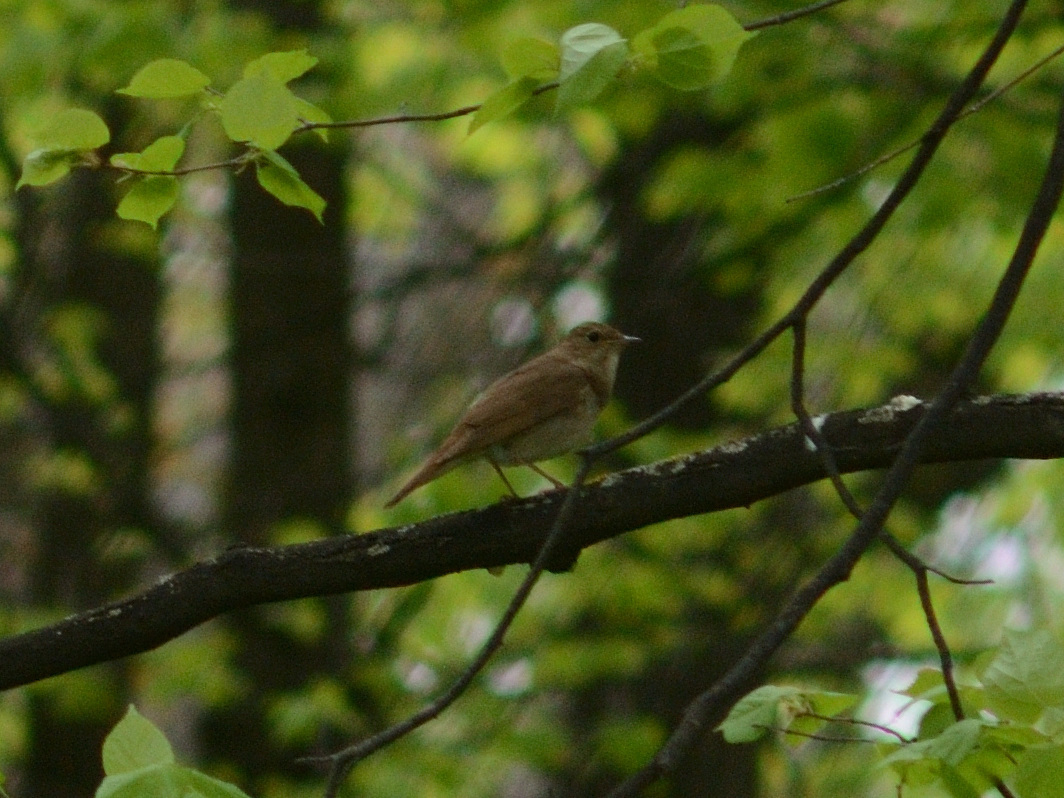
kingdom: Animalia
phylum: Chordata
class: Aves
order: Passeriformes
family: Muscicapidae
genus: Luscinia
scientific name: Luscinia luscinia
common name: Thrush nightingale
